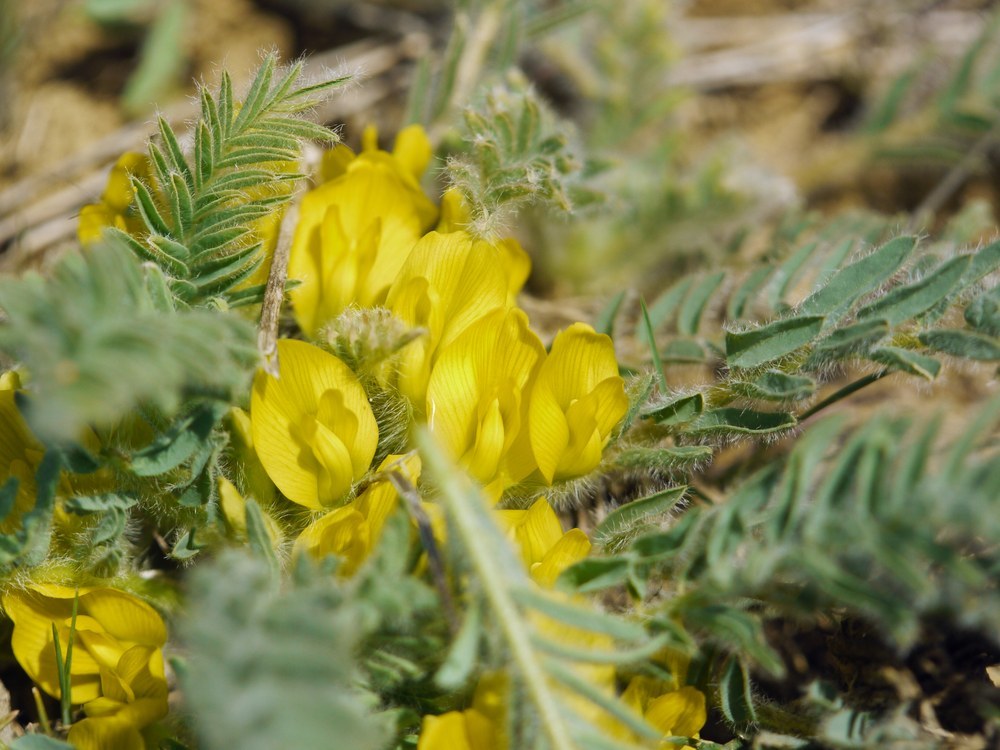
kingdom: Plantae
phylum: Tracheophyta
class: Magnoliopsida
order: Fabales
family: Fabaceae
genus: Astragalus
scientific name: Astragalus buchtormensis
